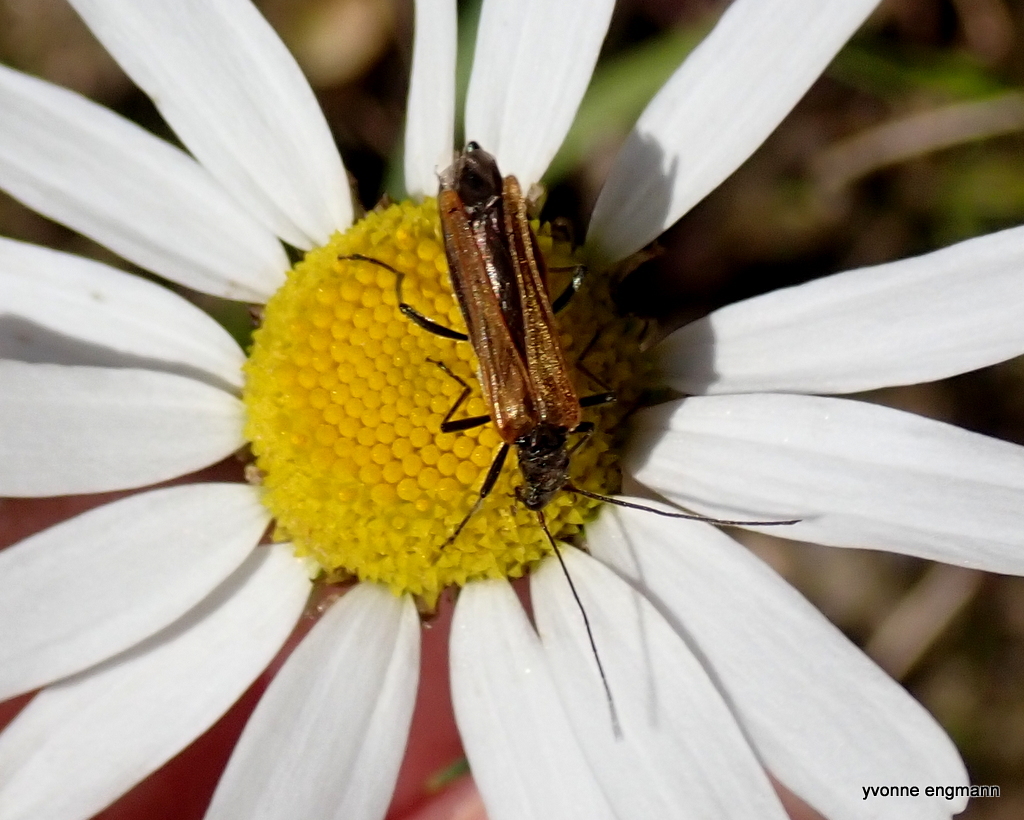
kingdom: Animalia
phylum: Arthropoda
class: Insecta
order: Coleoptera
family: Oedemeridae
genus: Oedemera
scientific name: Oedemera femorata
